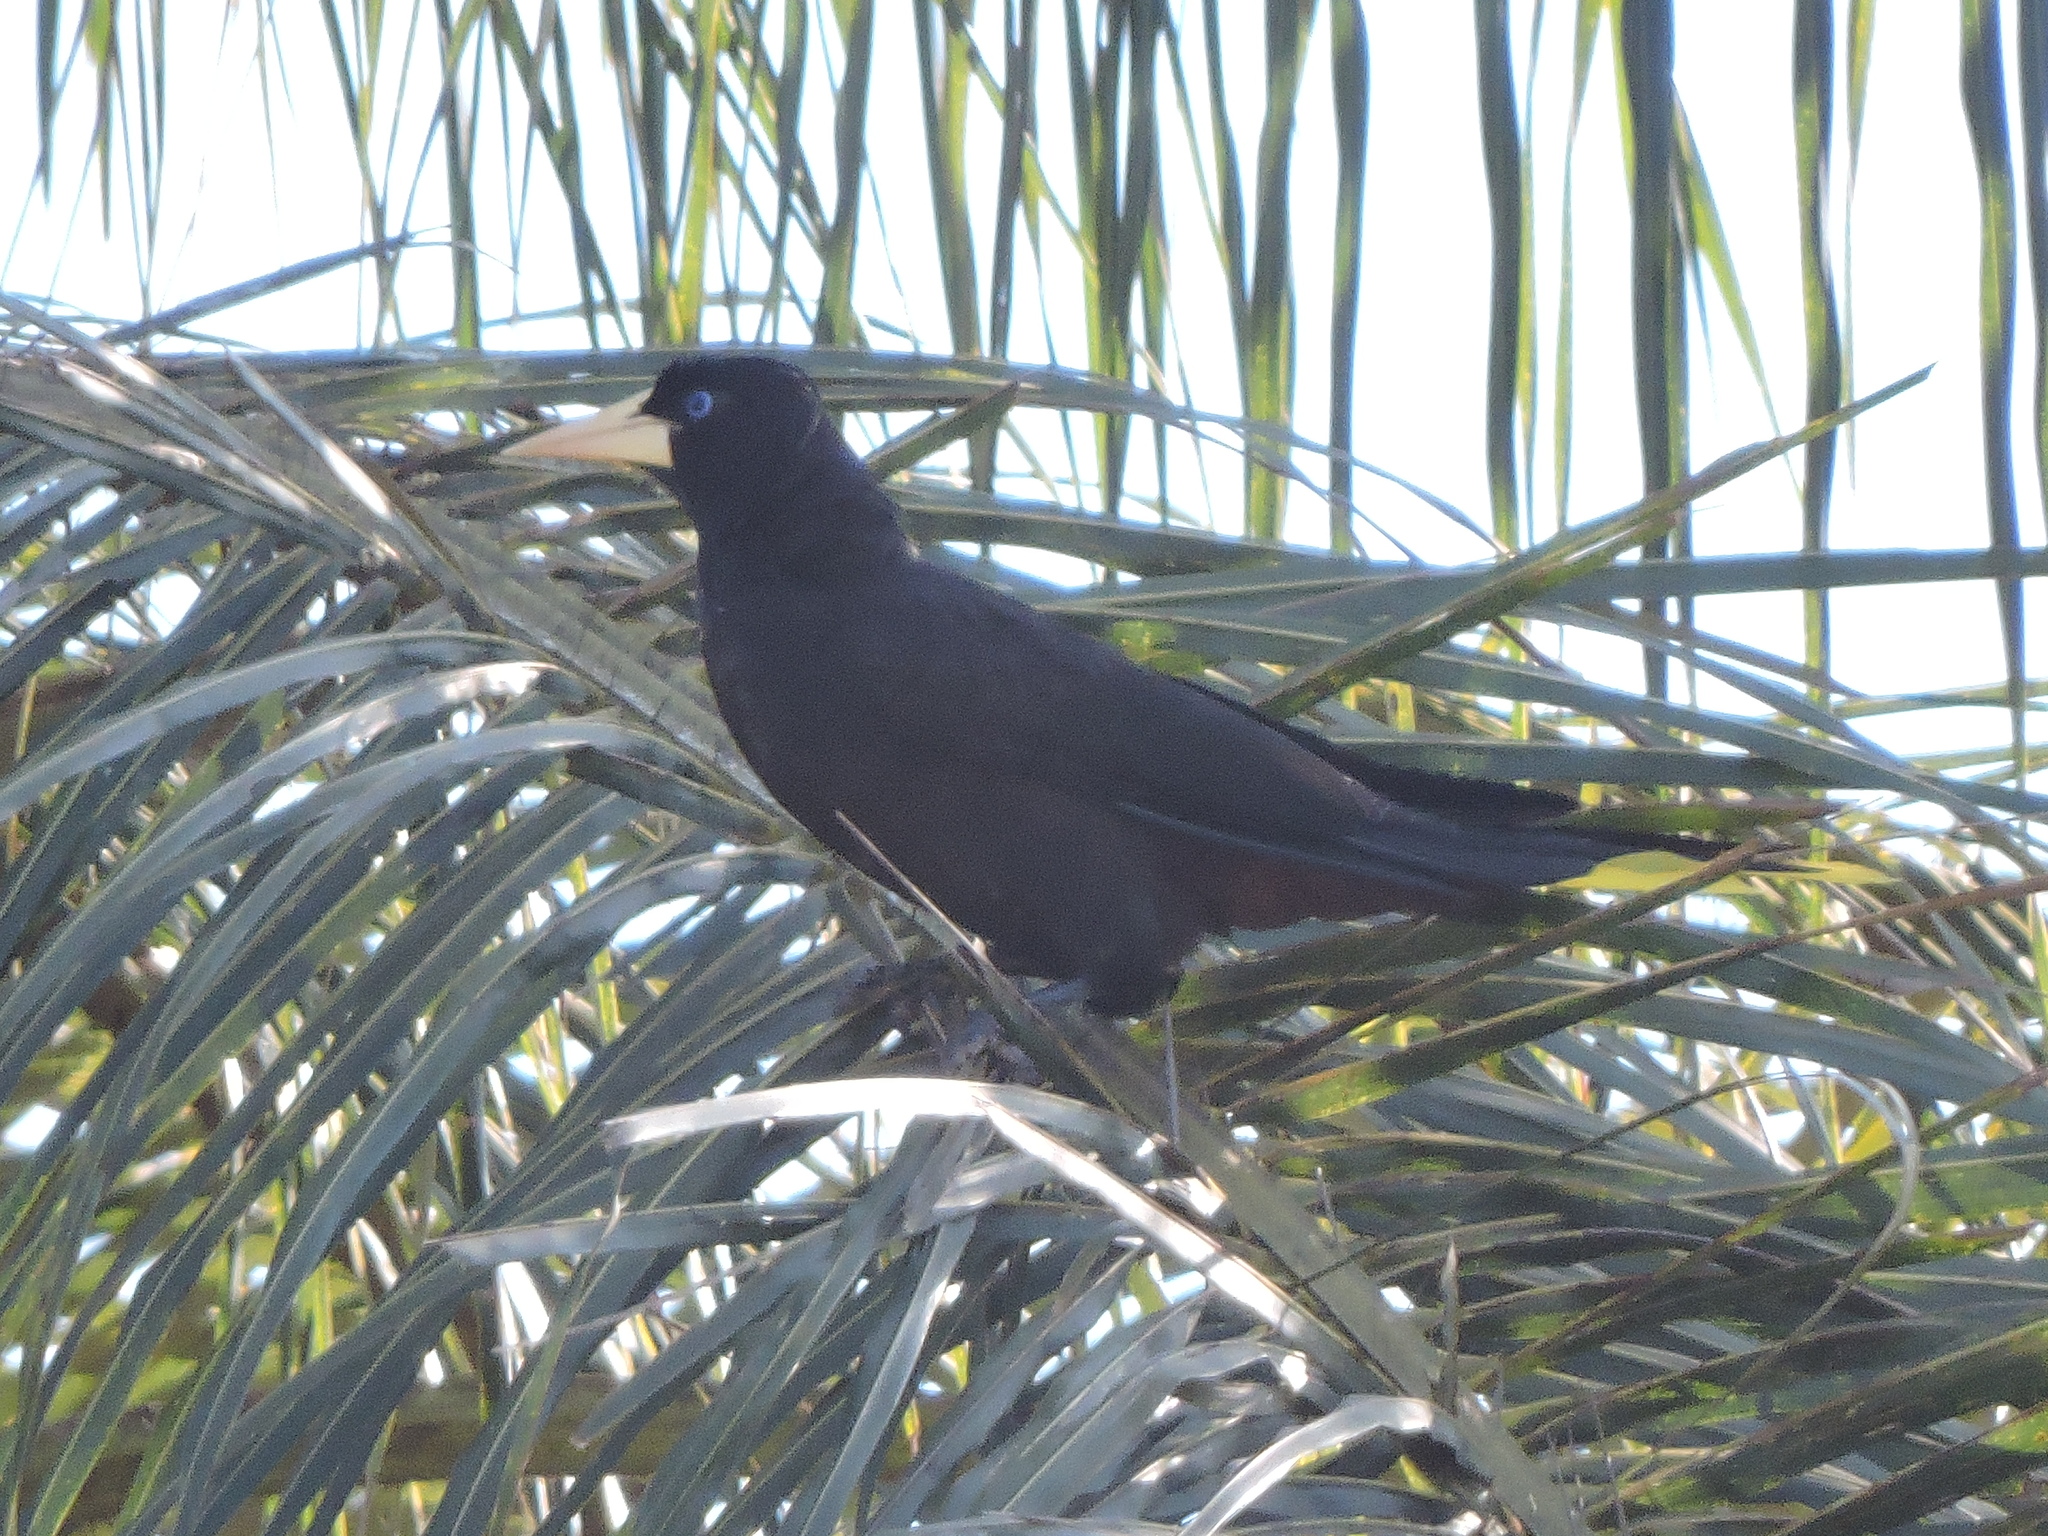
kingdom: Animalia
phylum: Chordata
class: Aves
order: Passeriformes
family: Icteridae
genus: Psarocolius
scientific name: Psarocolius decumanus
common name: Crested oropendola
